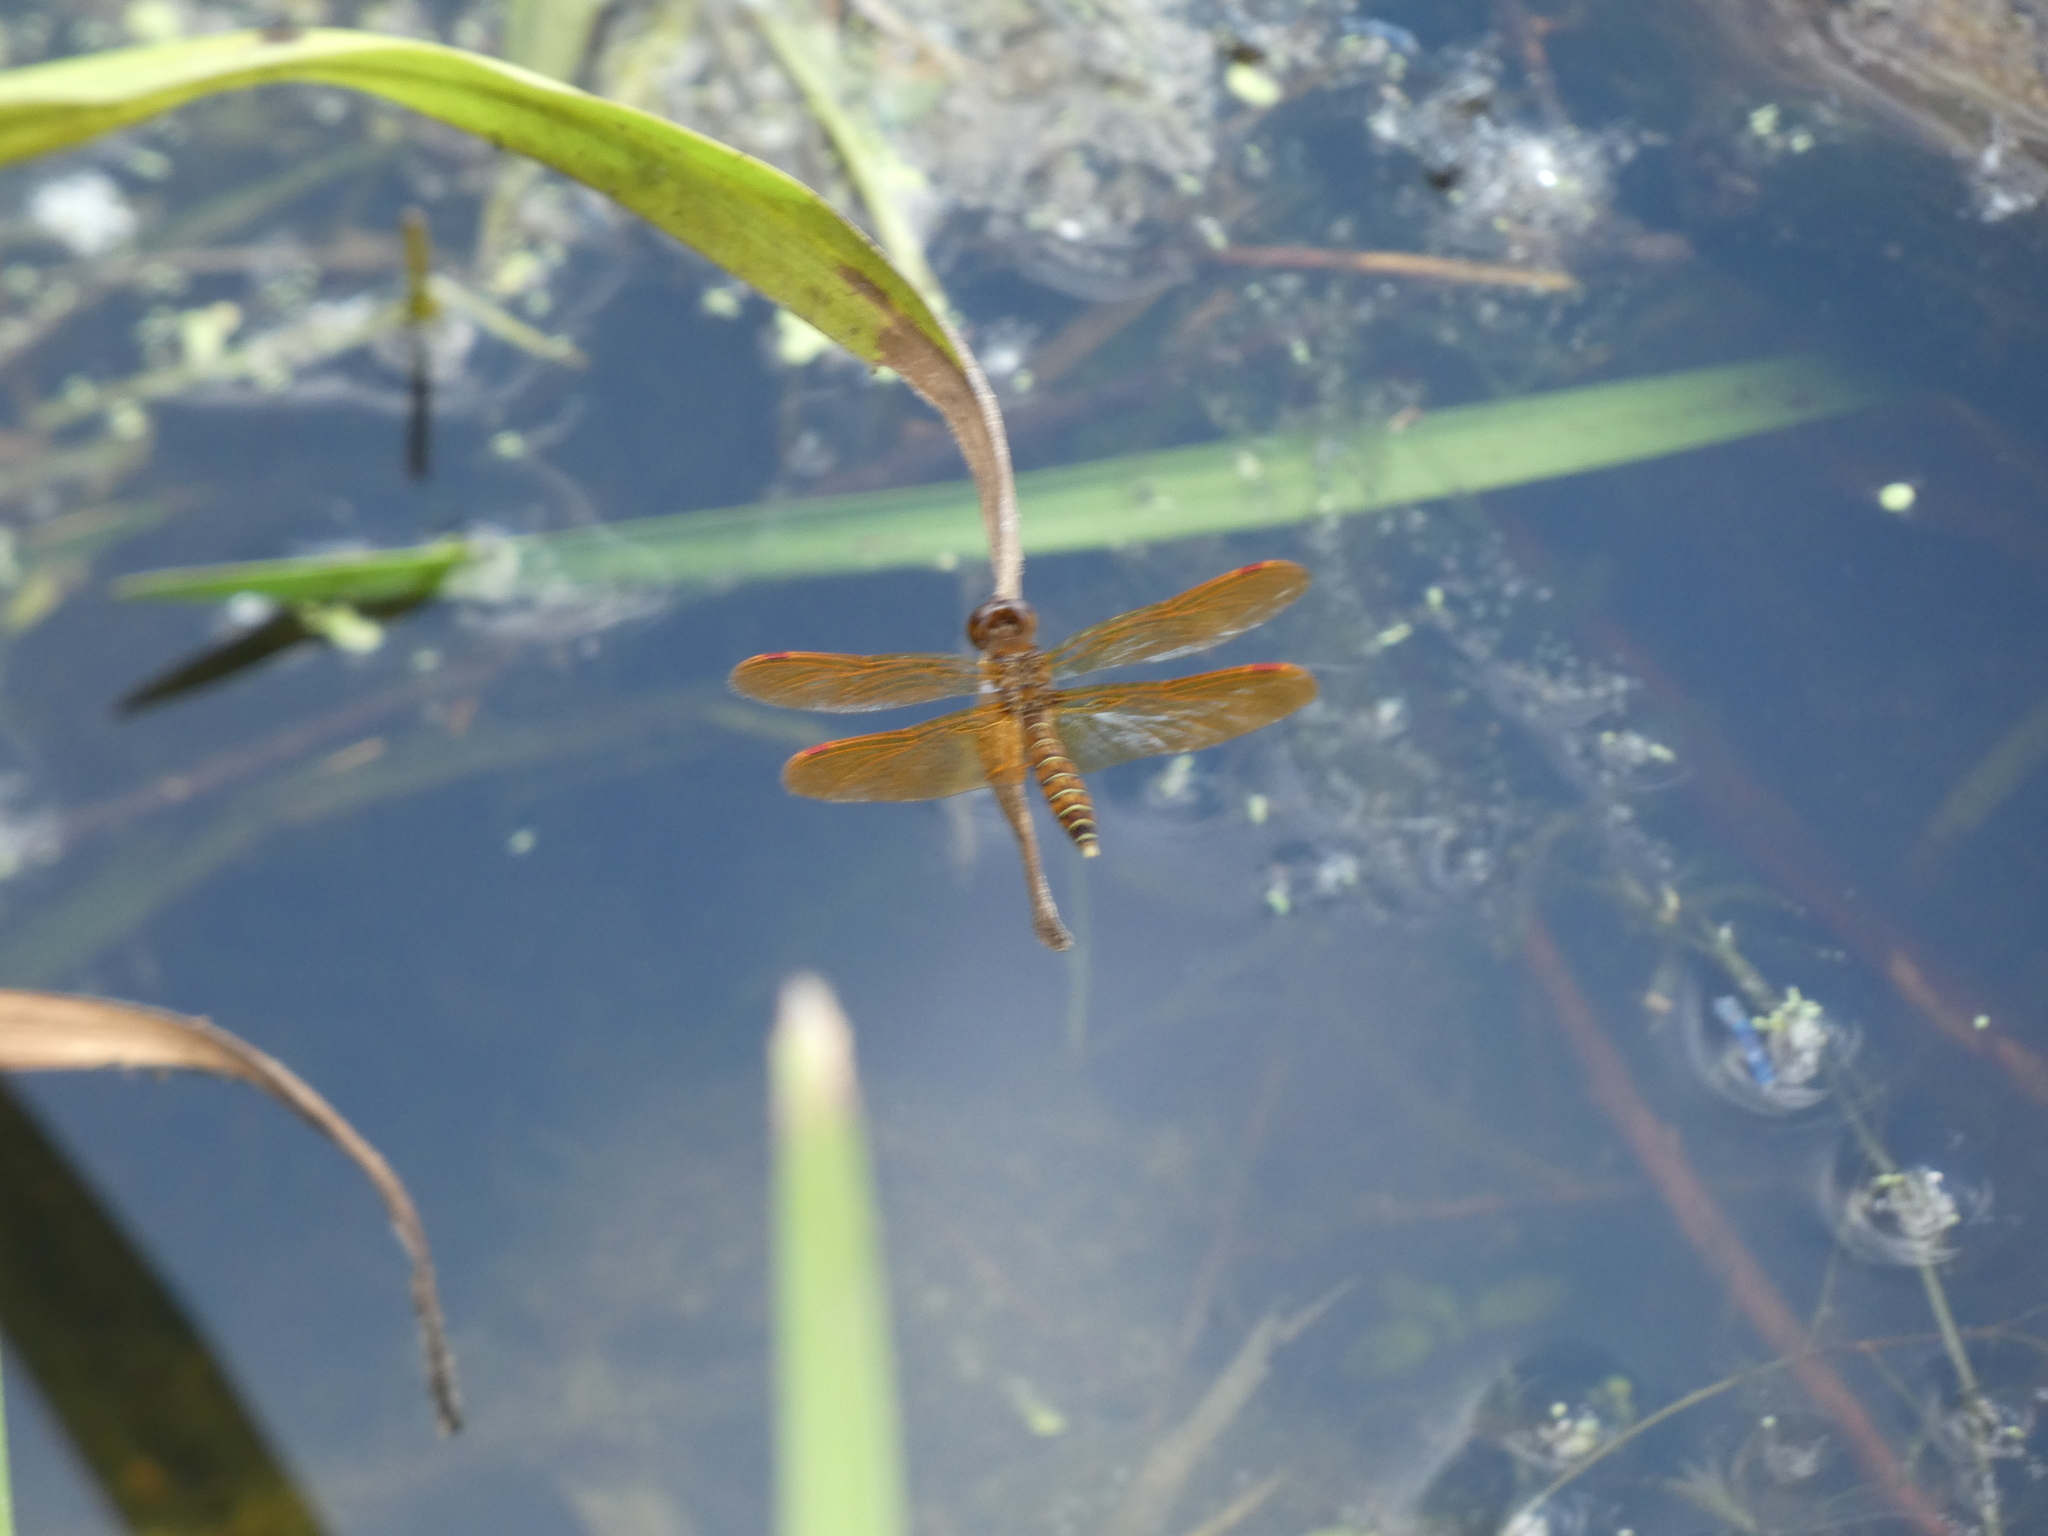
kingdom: Animalia
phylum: Arthropoda
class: Insecta
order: Odonata
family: Libellulidae
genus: Perithemis
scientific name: Perithemis tenera
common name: Eastern amberwing
